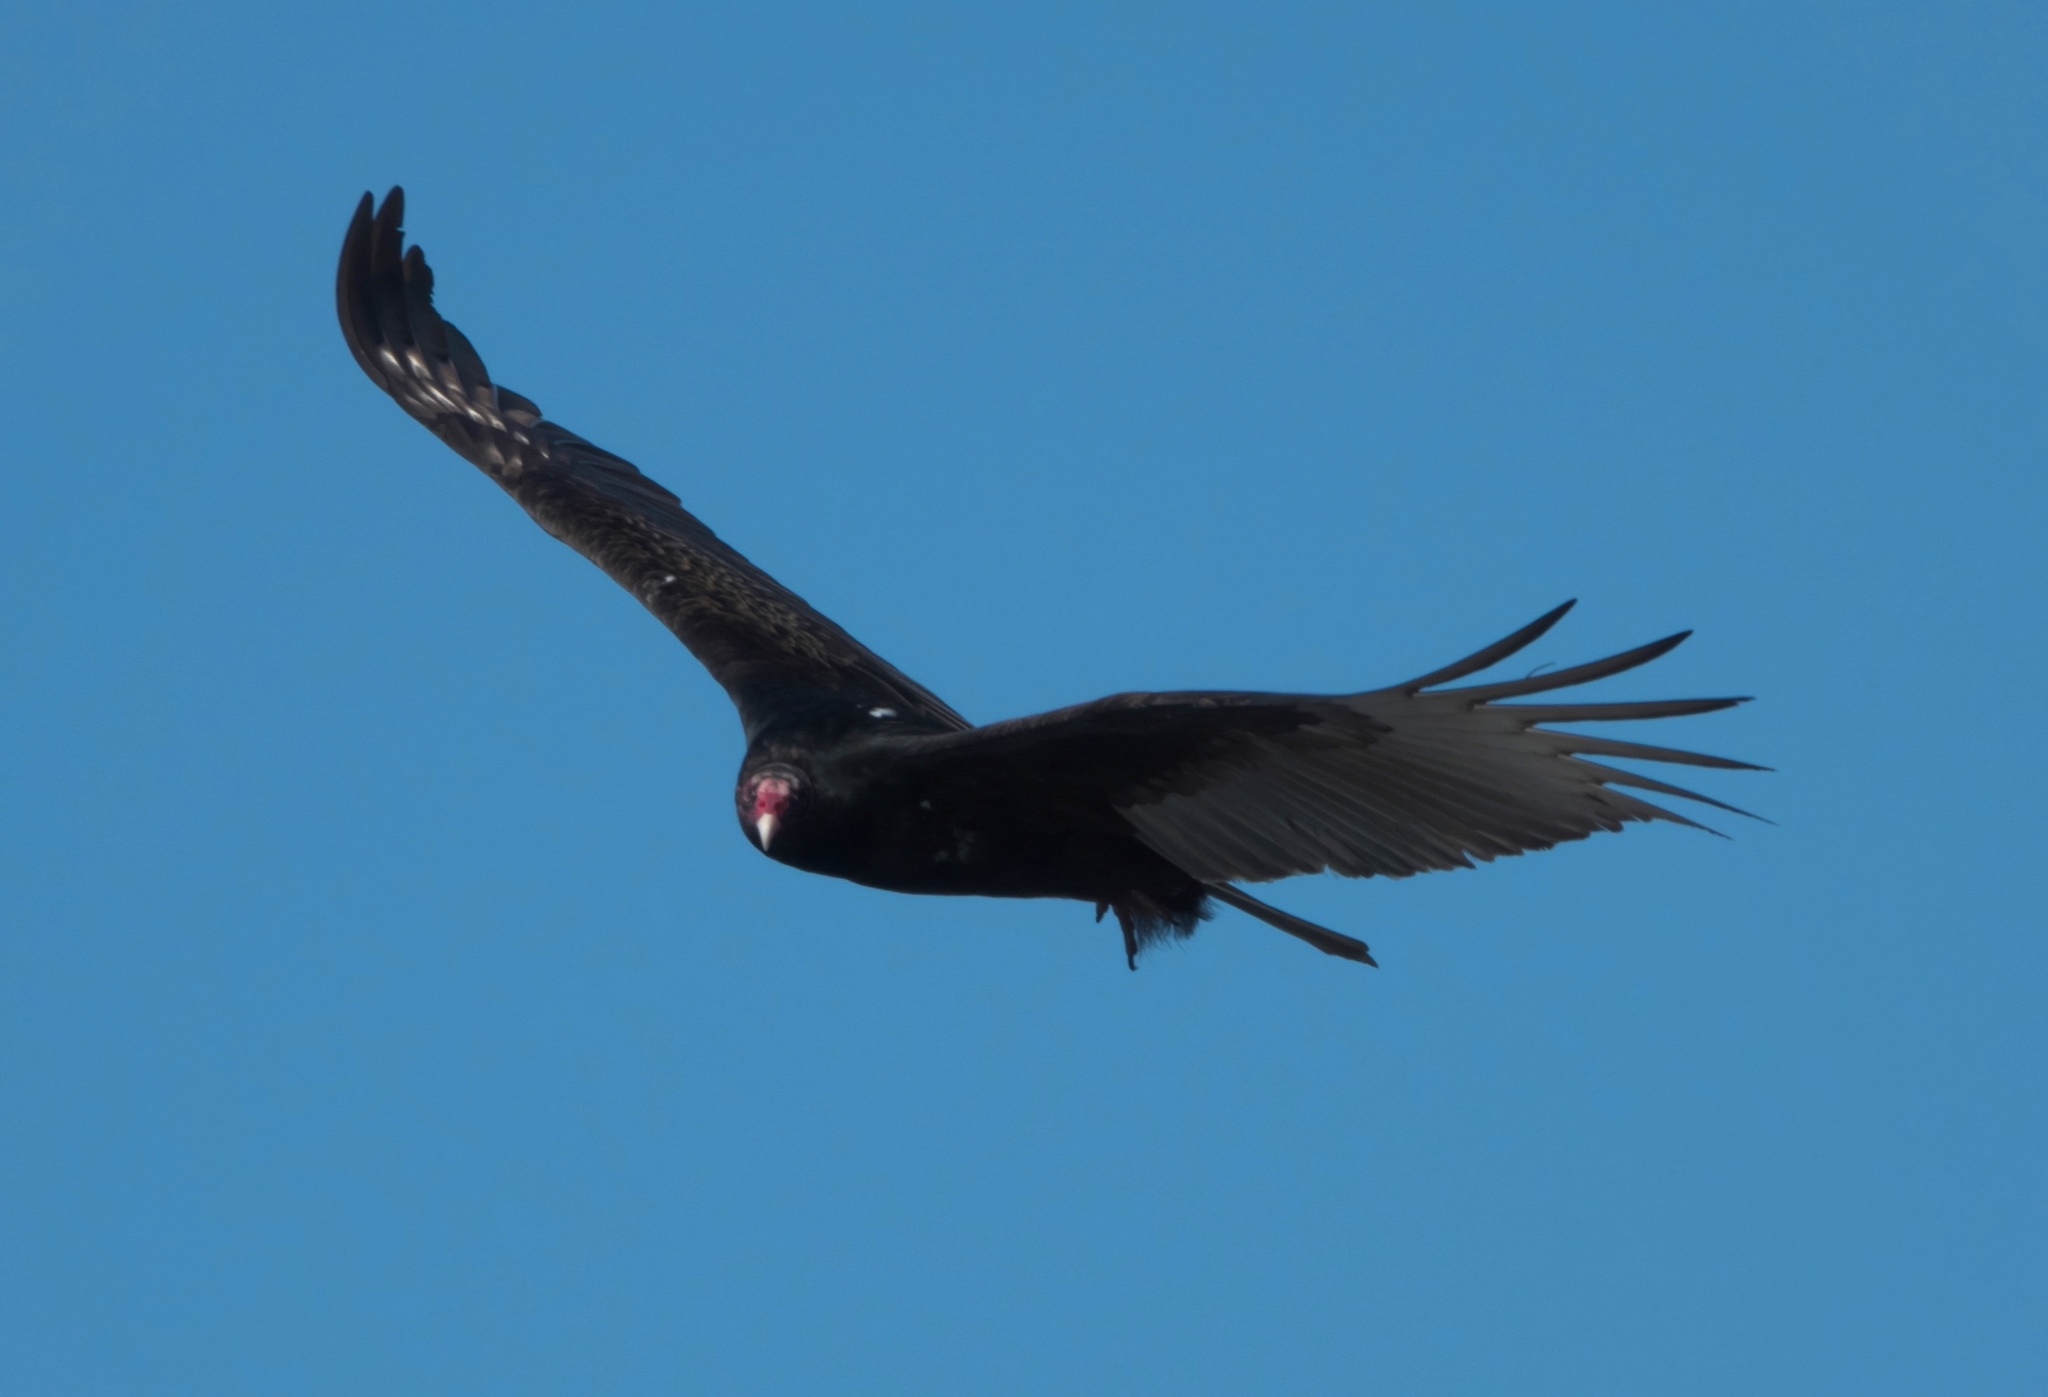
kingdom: Animalia
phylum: Chordata
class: Aves
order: Accipitriformes
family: Cathartidae
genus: Cathartes
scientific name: Cathartes aura
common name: Turkey vulture
